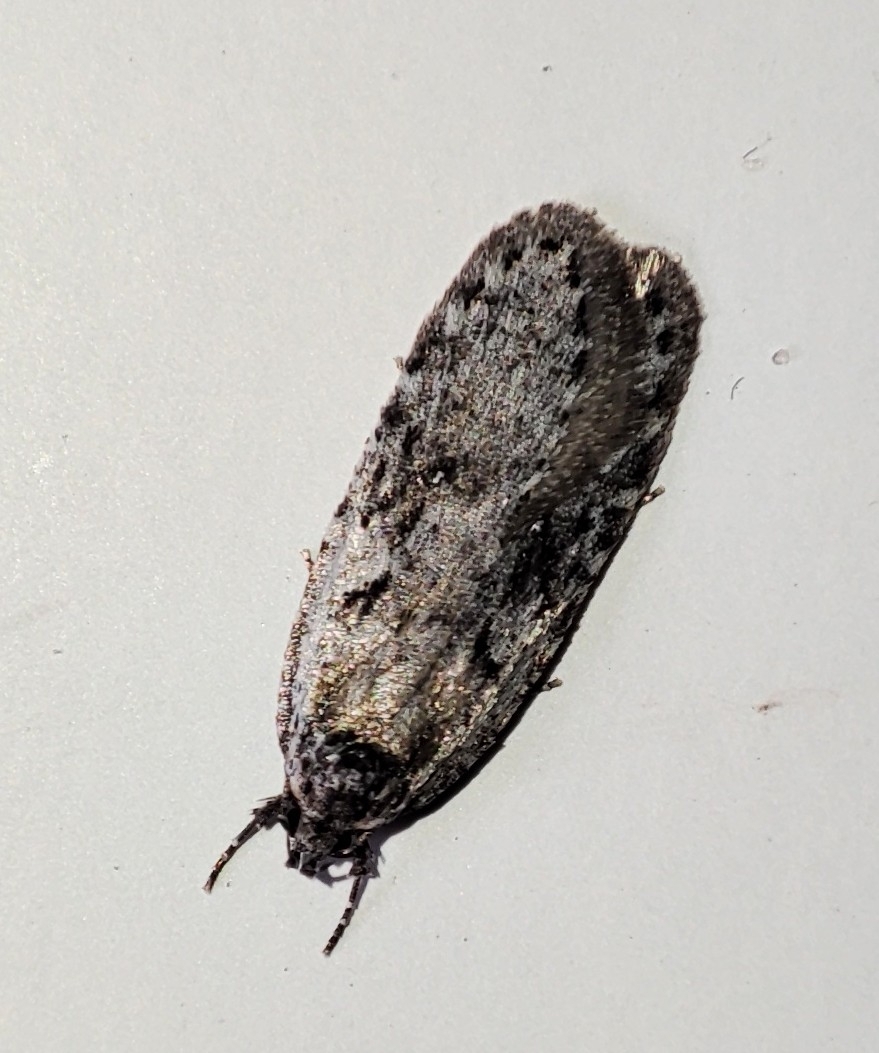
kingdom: Animalia
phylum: Arthropoda
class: Insecta
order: Lepidoptera
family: Depressariidae
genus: Exaeretia
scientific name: Exaeretia ciniflonella
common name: Scotch flat-body
